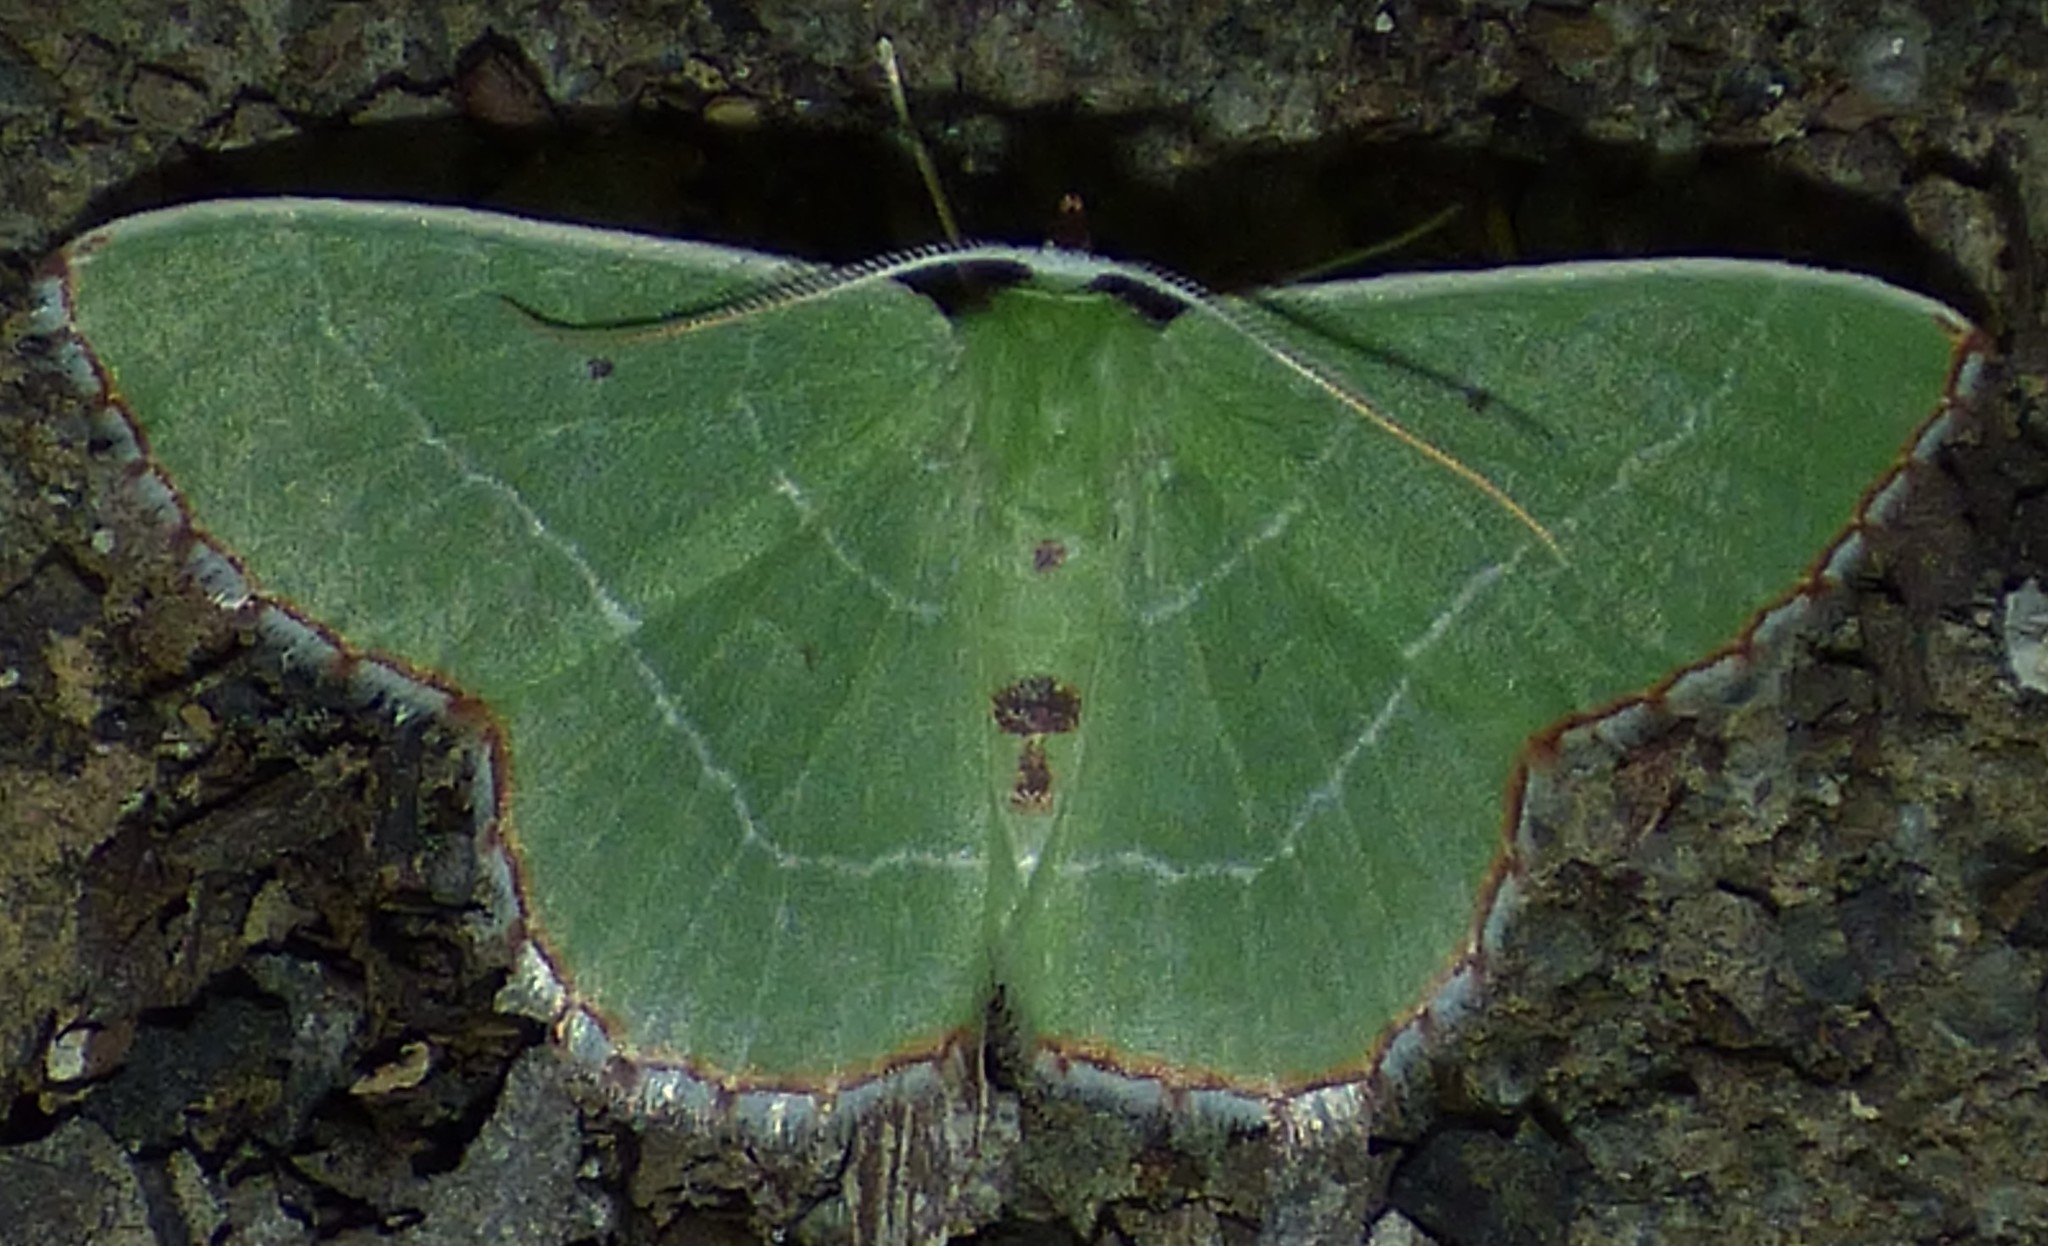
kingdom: Animalia
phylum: Arthropoda
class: Insecta
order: Lepidoptera
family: Geometridae
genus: Nemoria
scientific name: Nemoria saturiba
